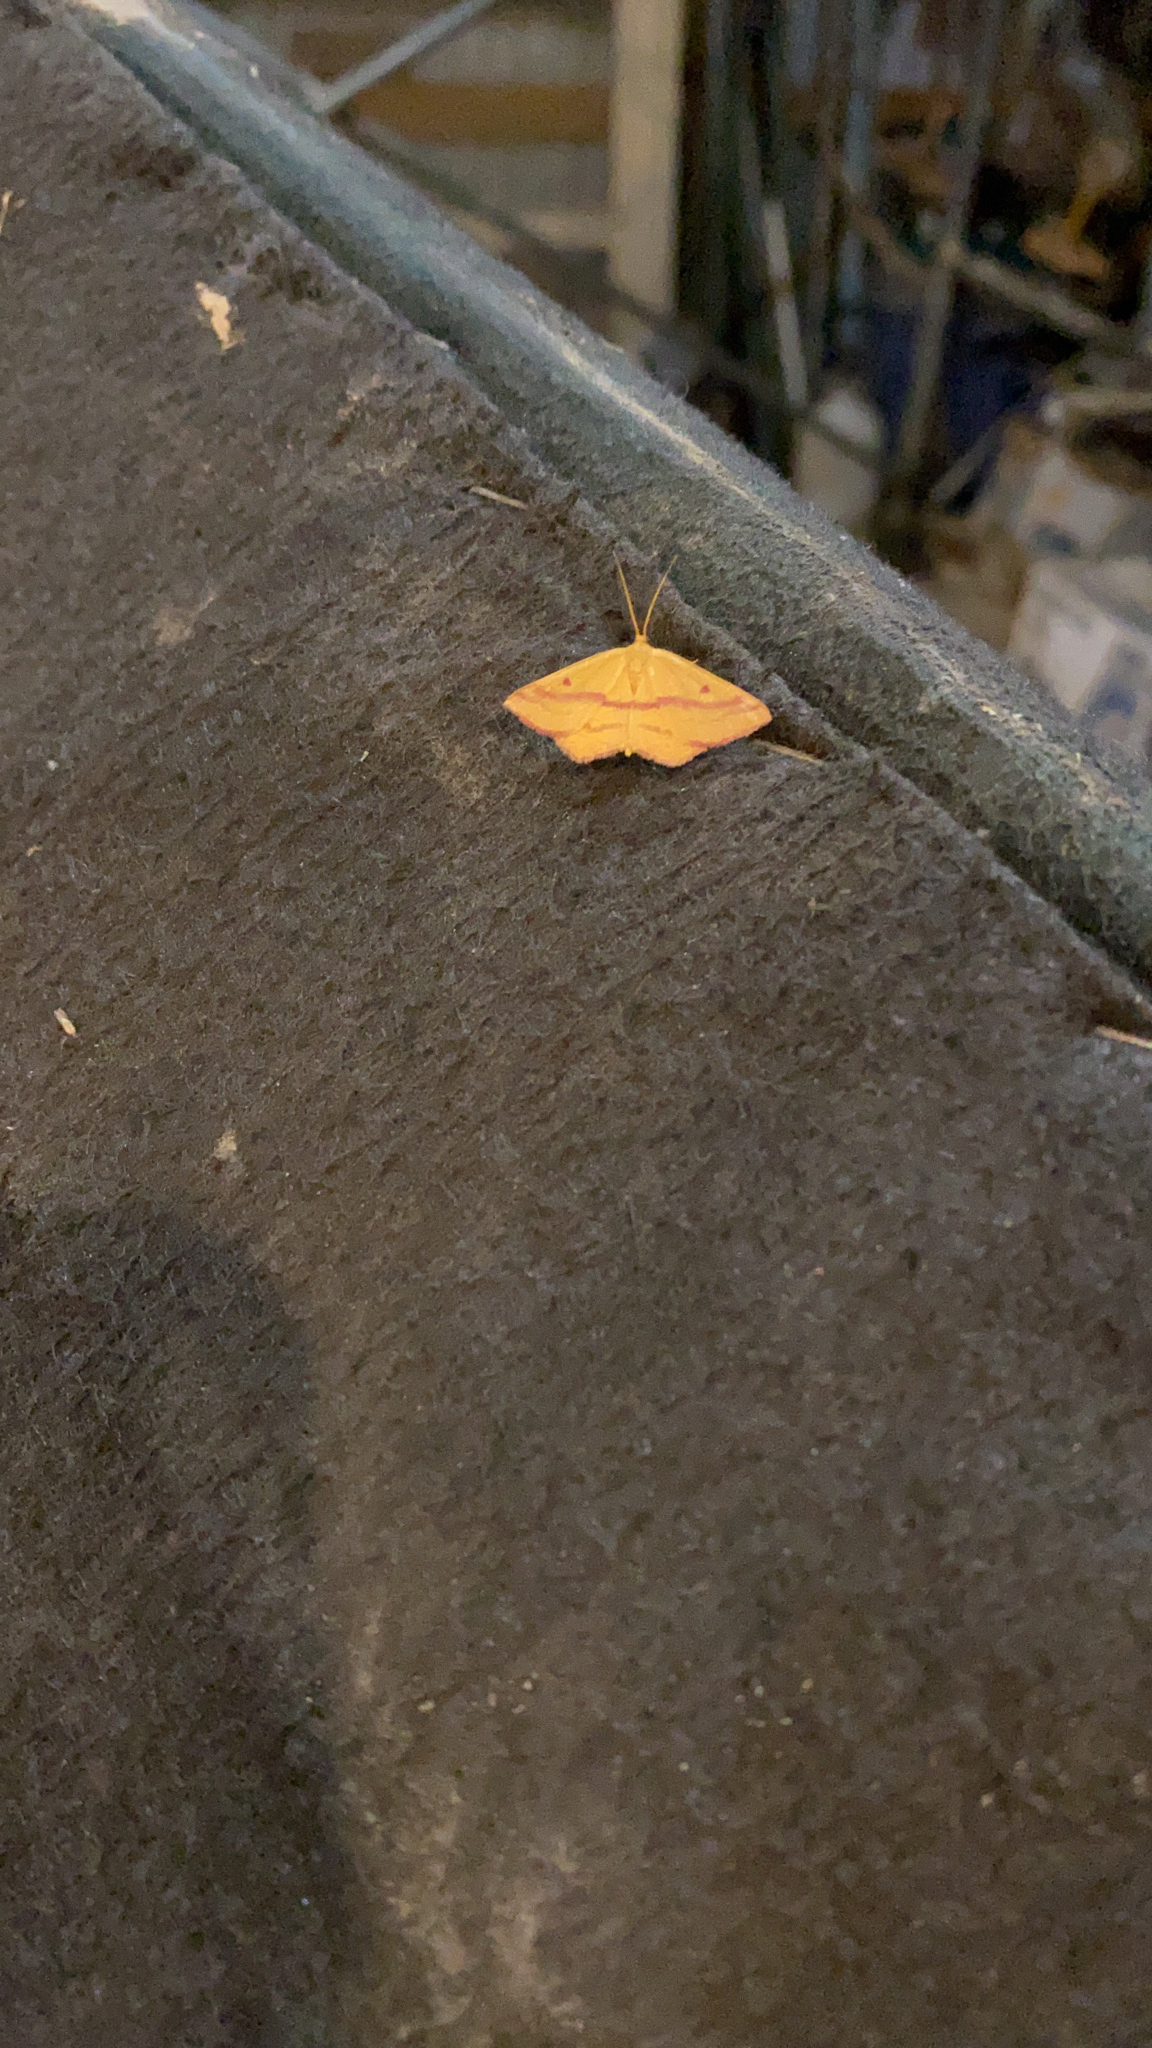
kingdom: Animalia
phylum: Arthropoda
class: Insecta
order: Lepidoptera
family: Geometridae
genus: Haematopis
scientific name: Haematopis grataria
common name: Chickweed geometer
